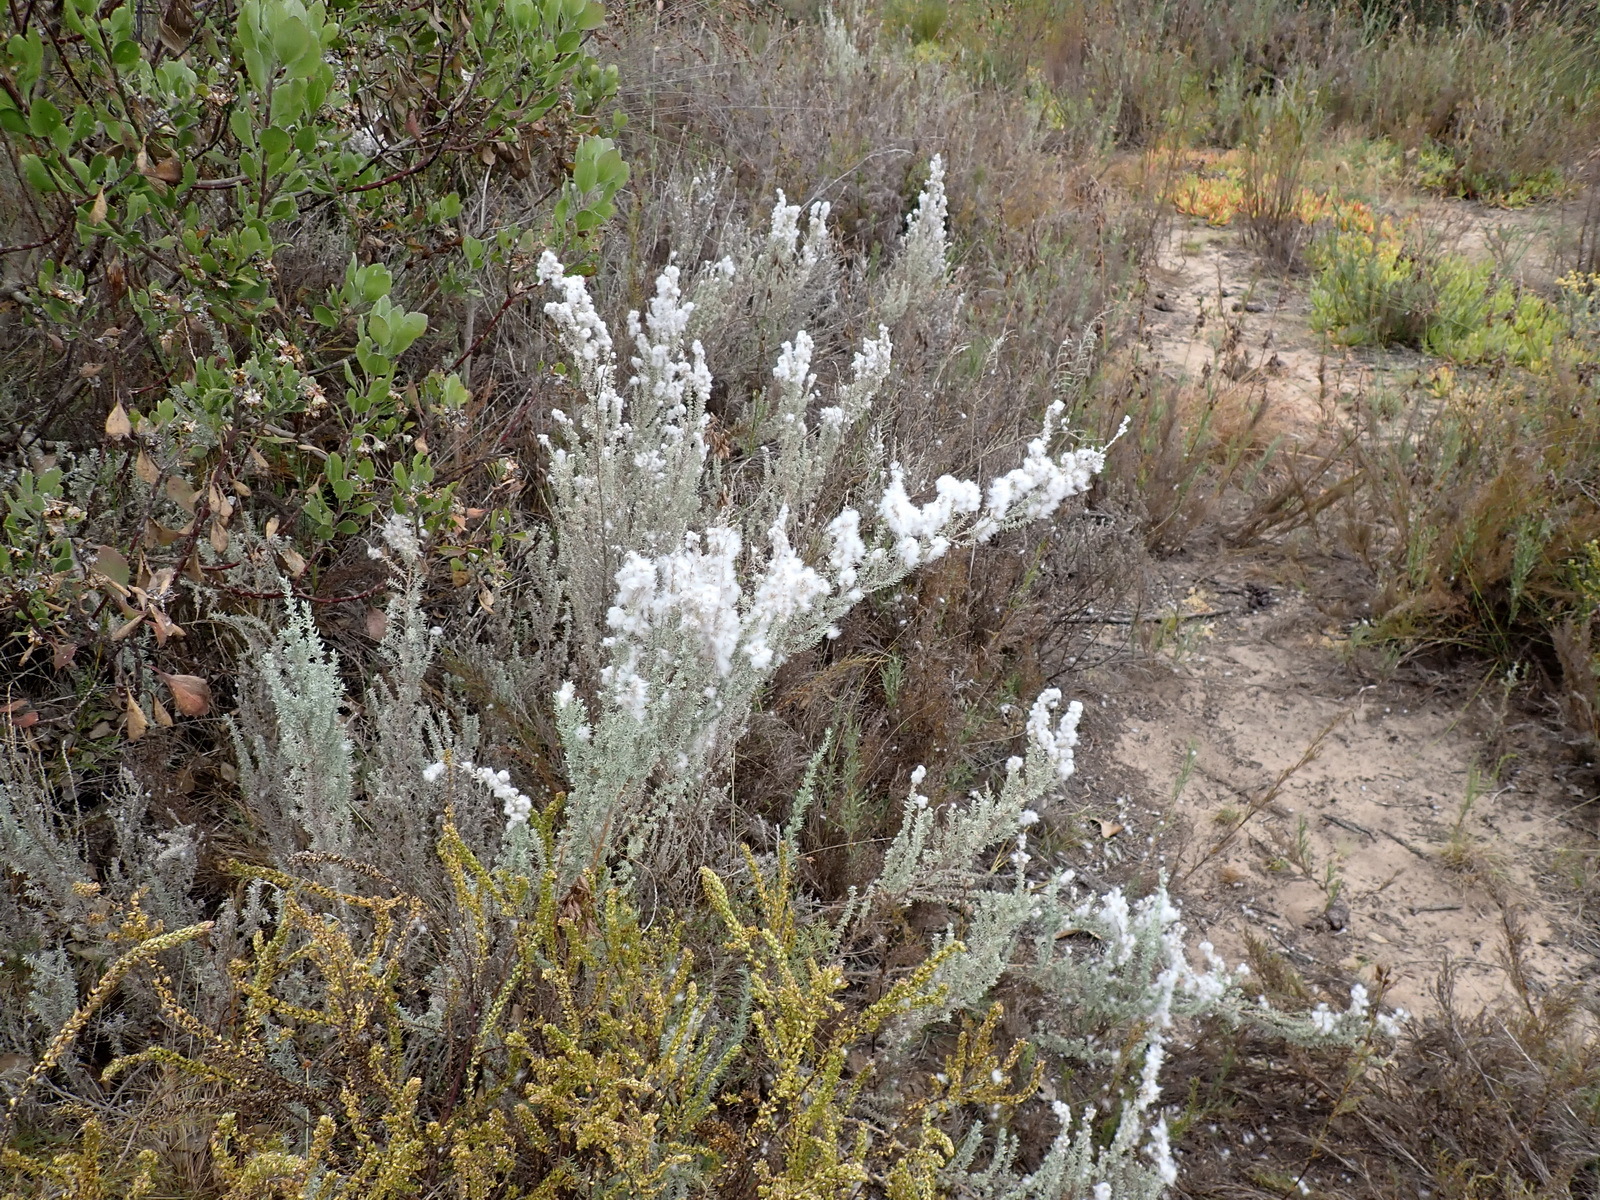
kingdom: Plantae
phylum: Tracheophyta
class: Magnoliopsida
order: Asterales
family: Asteraceae
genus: Eriocephalus
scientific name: Eriocephalus racemosus
